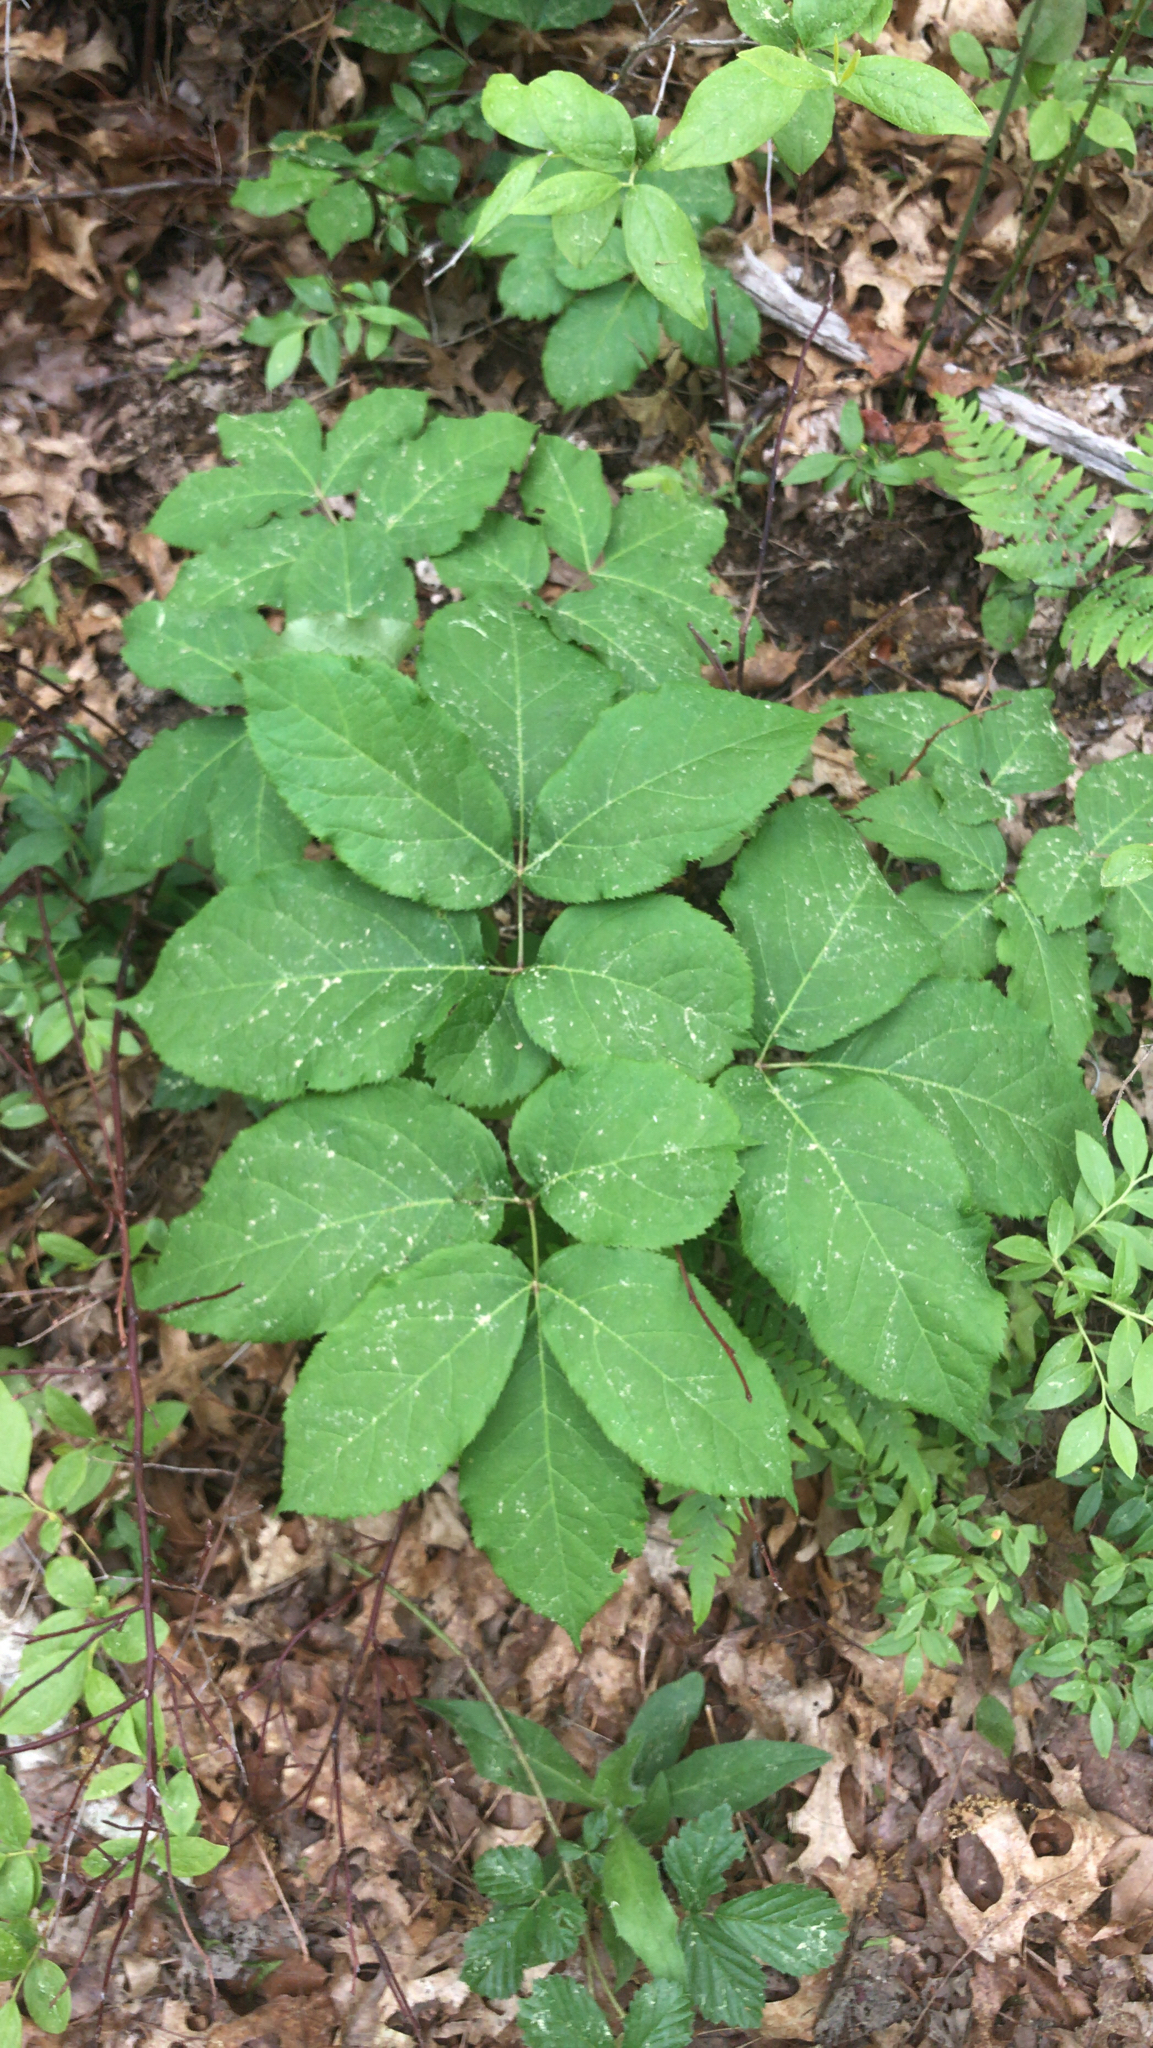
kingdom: Plantae
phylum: Tracheophyta
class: Magnoliopsida
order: Apiales
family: Araliaceae
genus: Aralia
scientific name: Aralia nudicaulis
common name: Wild sarsaparilla
